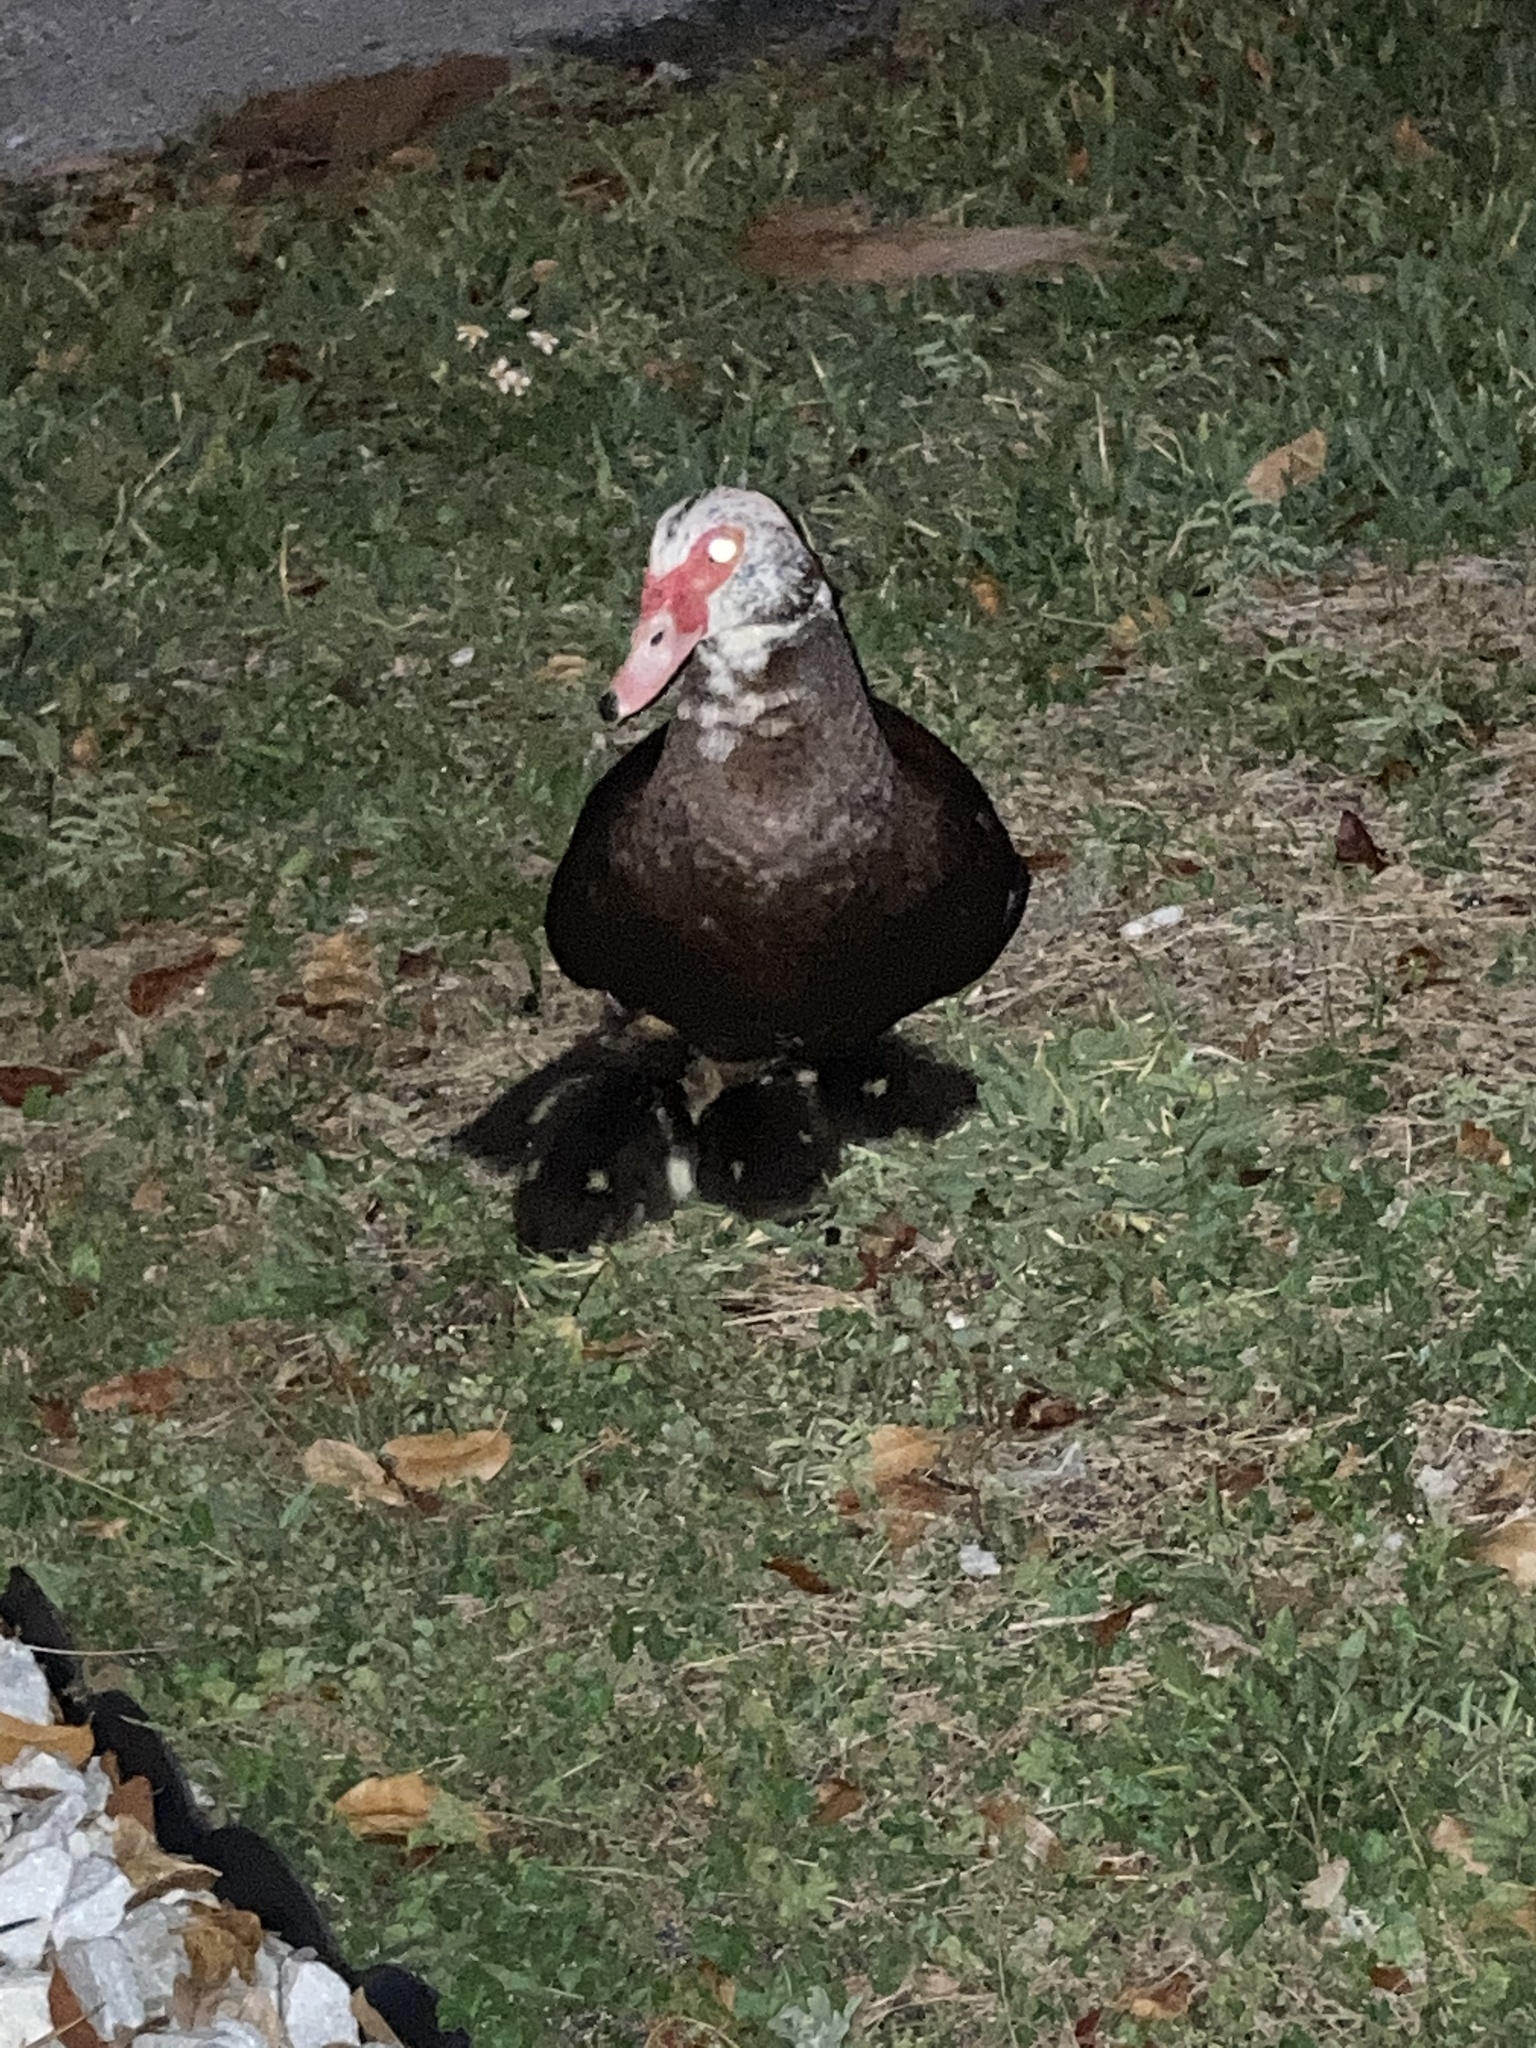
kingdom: Animalia
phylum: Chordata
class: Aves
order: Anseriformes
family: Anatidae
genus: Cairina
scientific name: Cairina moschata
